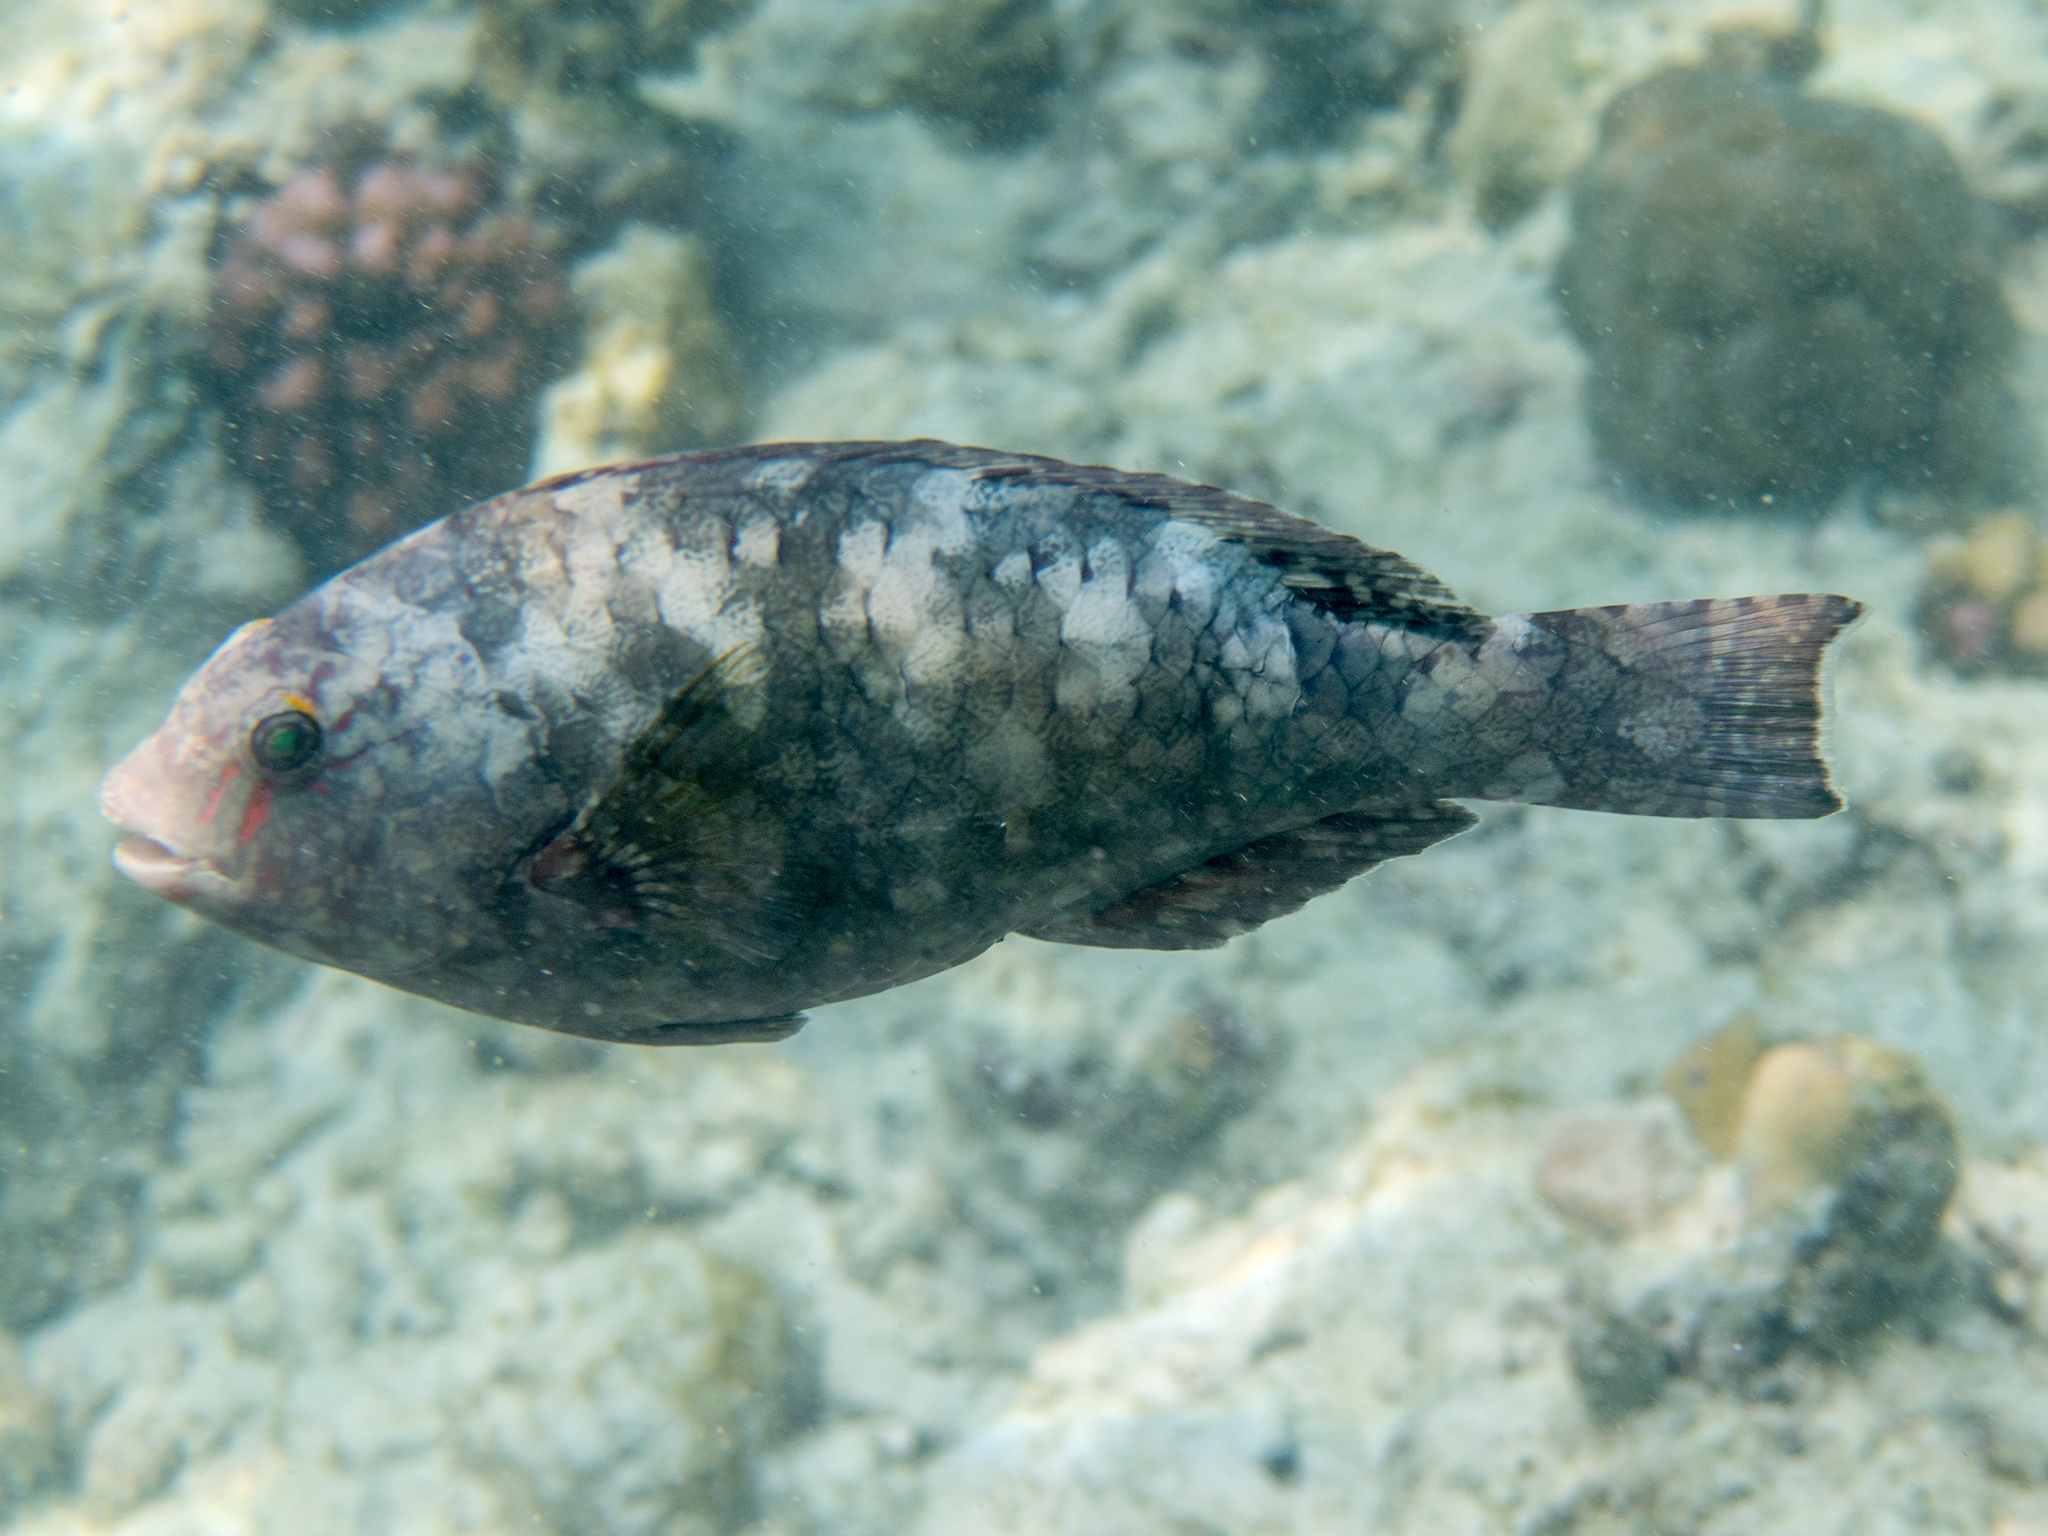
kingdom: Animalia
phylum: Chordata
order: Perciformes
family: Scaridae
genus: Calotomus
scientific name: Calotomus carolinus
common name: Bucktooth
